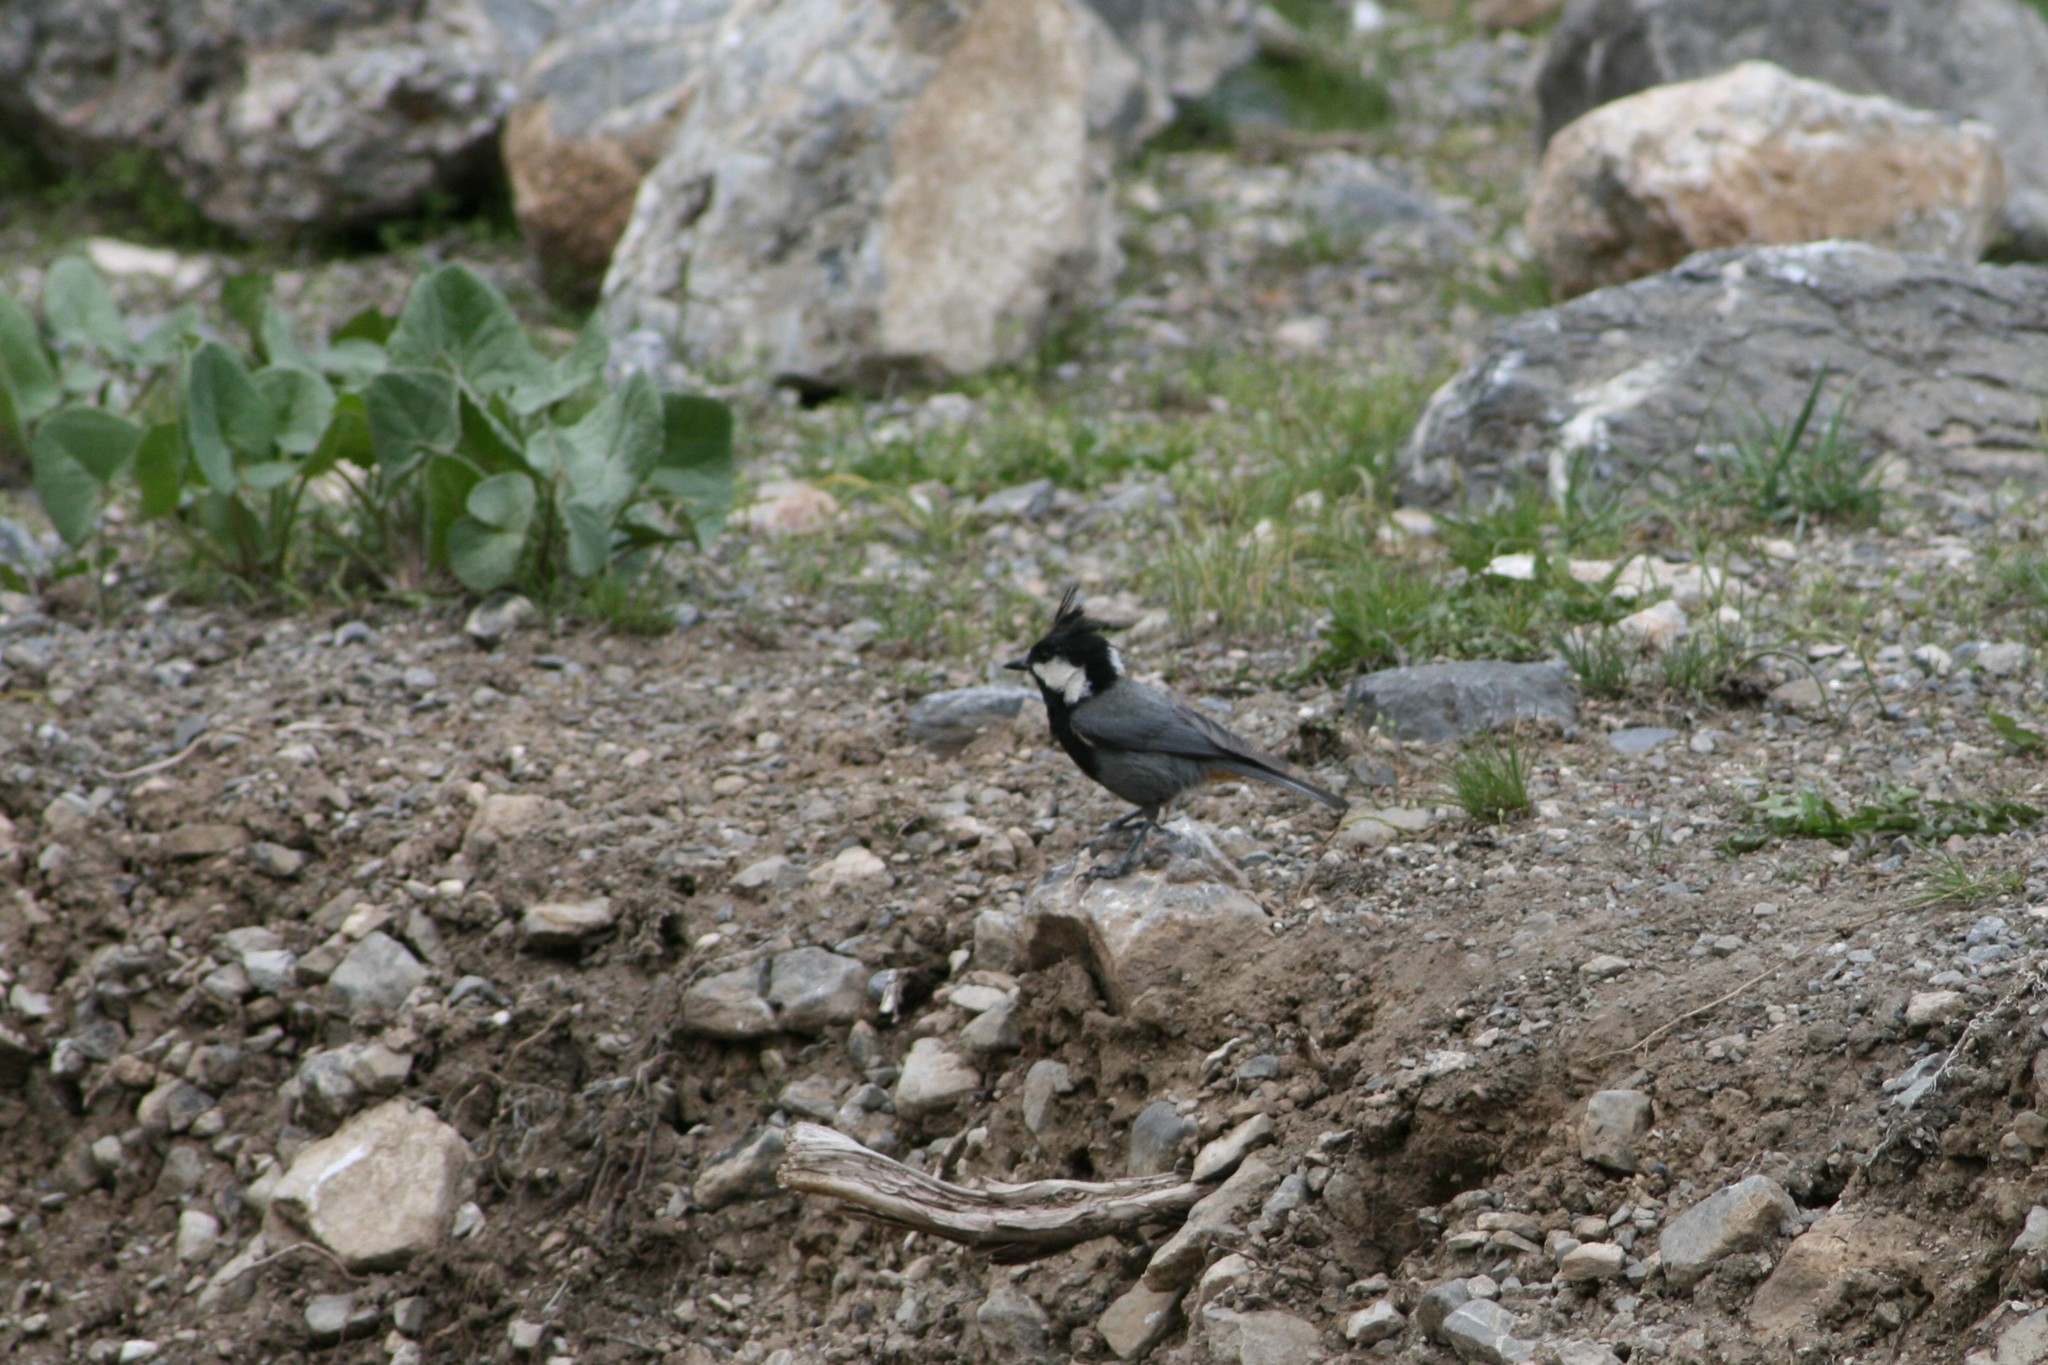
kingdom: Animalia
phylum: Chordata
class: Aves
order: Passeriformes
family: Paridae
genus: Periparus
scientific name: Periparus rufonuchalis
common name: Rufous-naped tit
